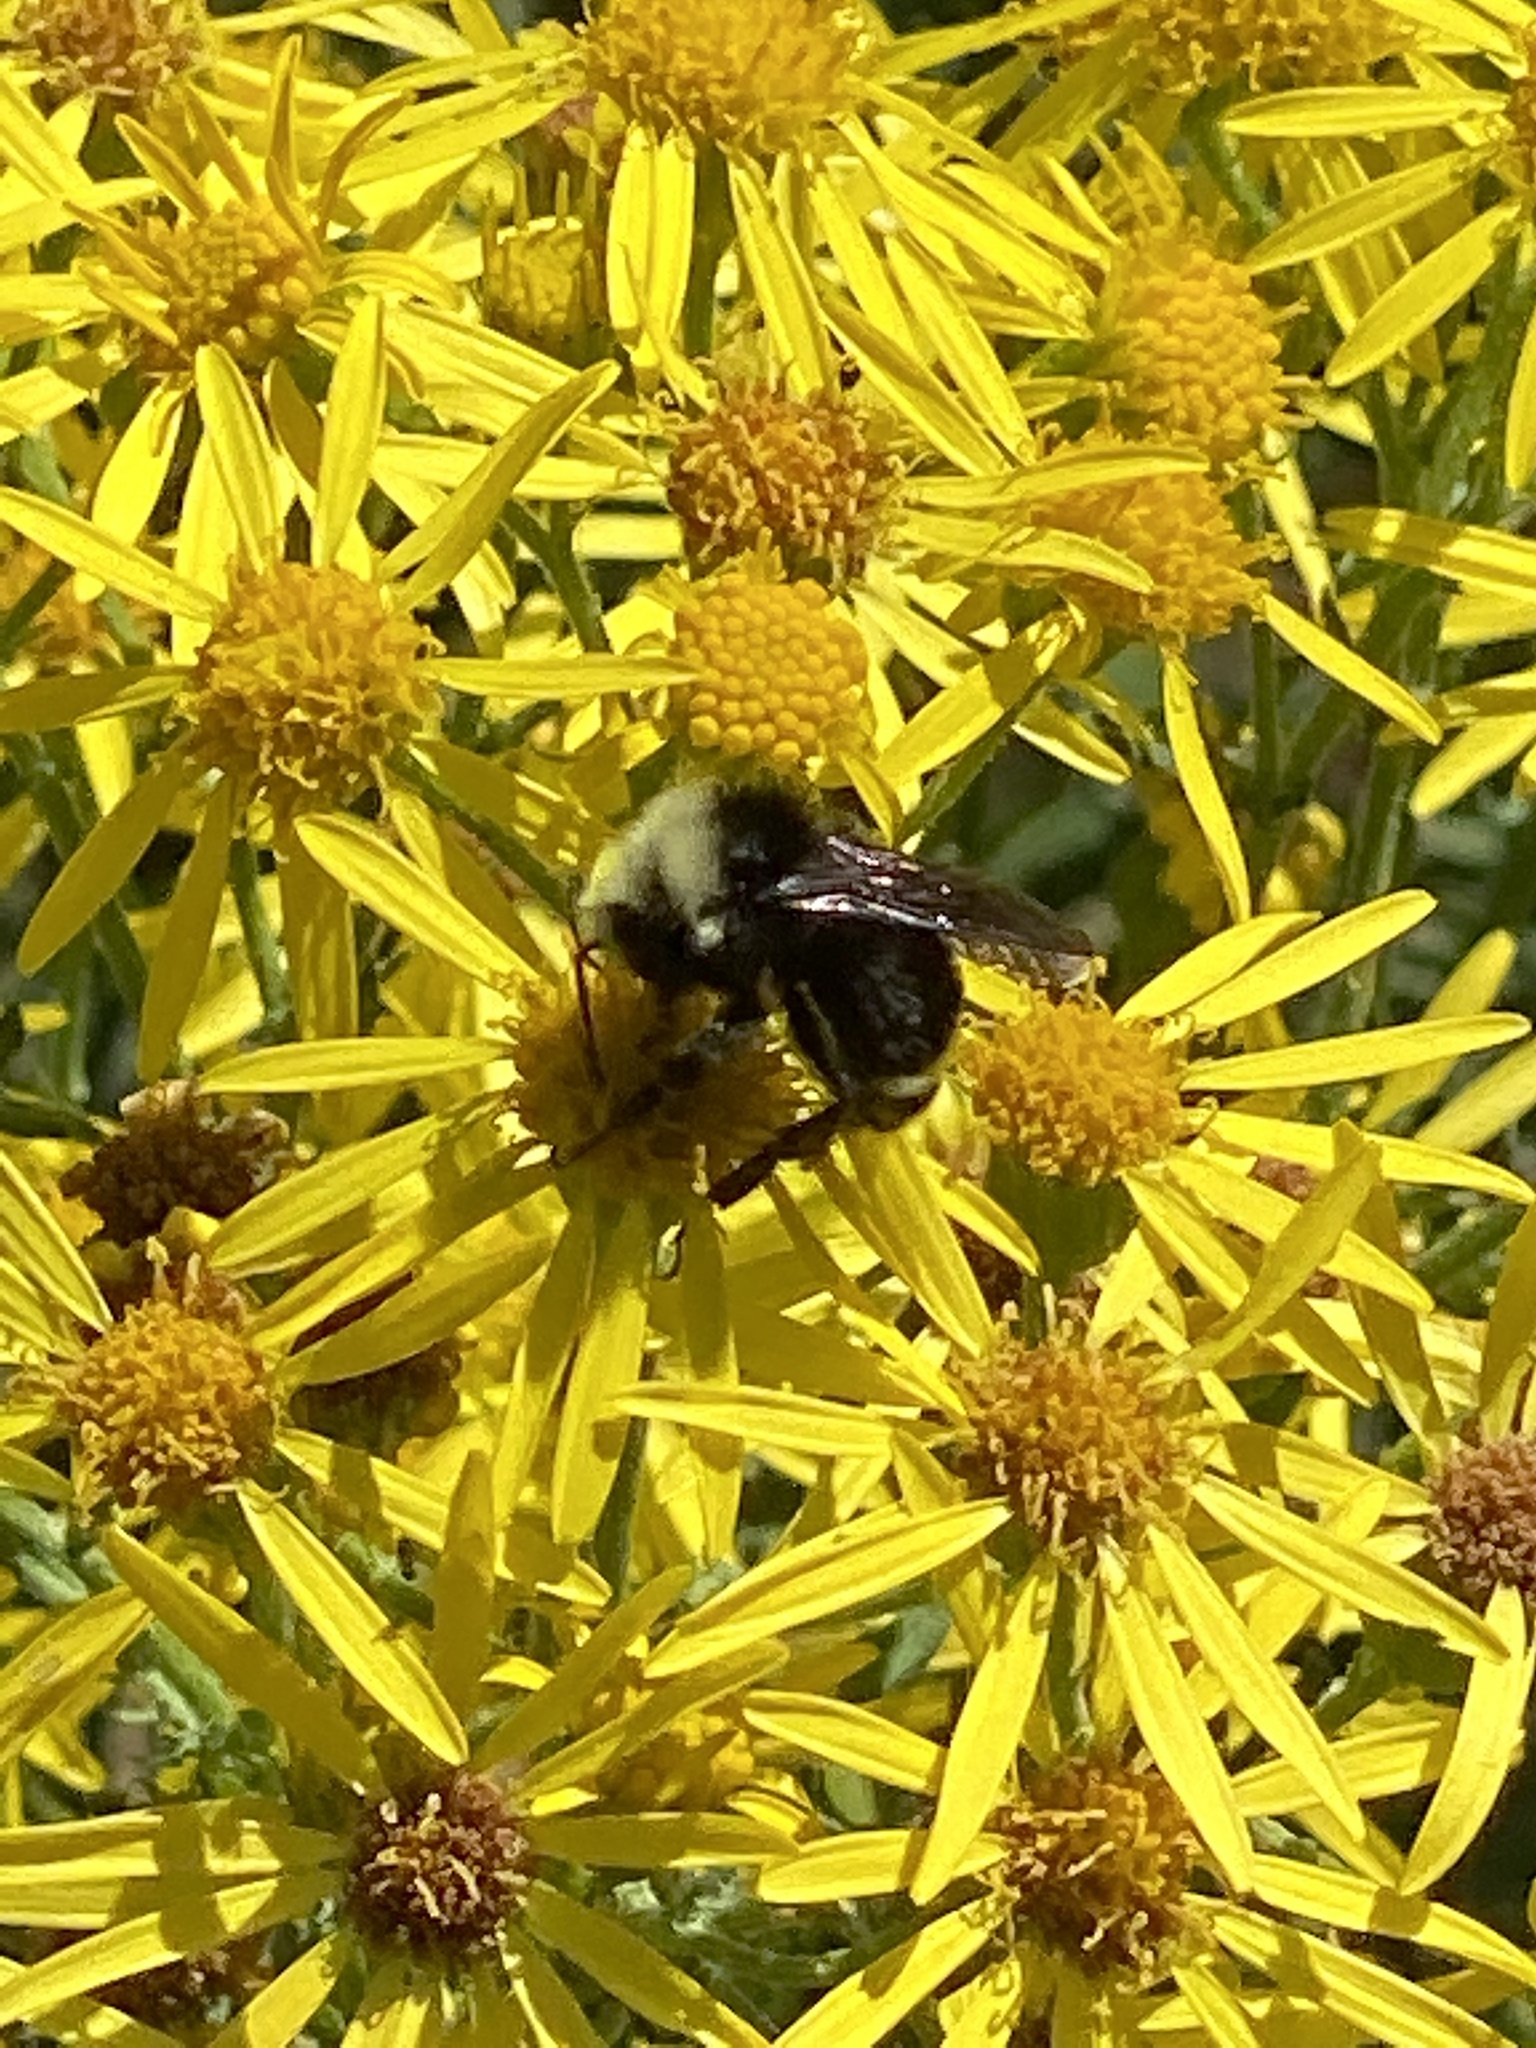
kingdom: Animalia
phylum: Arthropoda
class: Insecta
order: Hymenoptera
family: Apidae
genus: Bombus
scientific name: Bombus vosnesenskii
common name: Vosnesensky bumble bee
